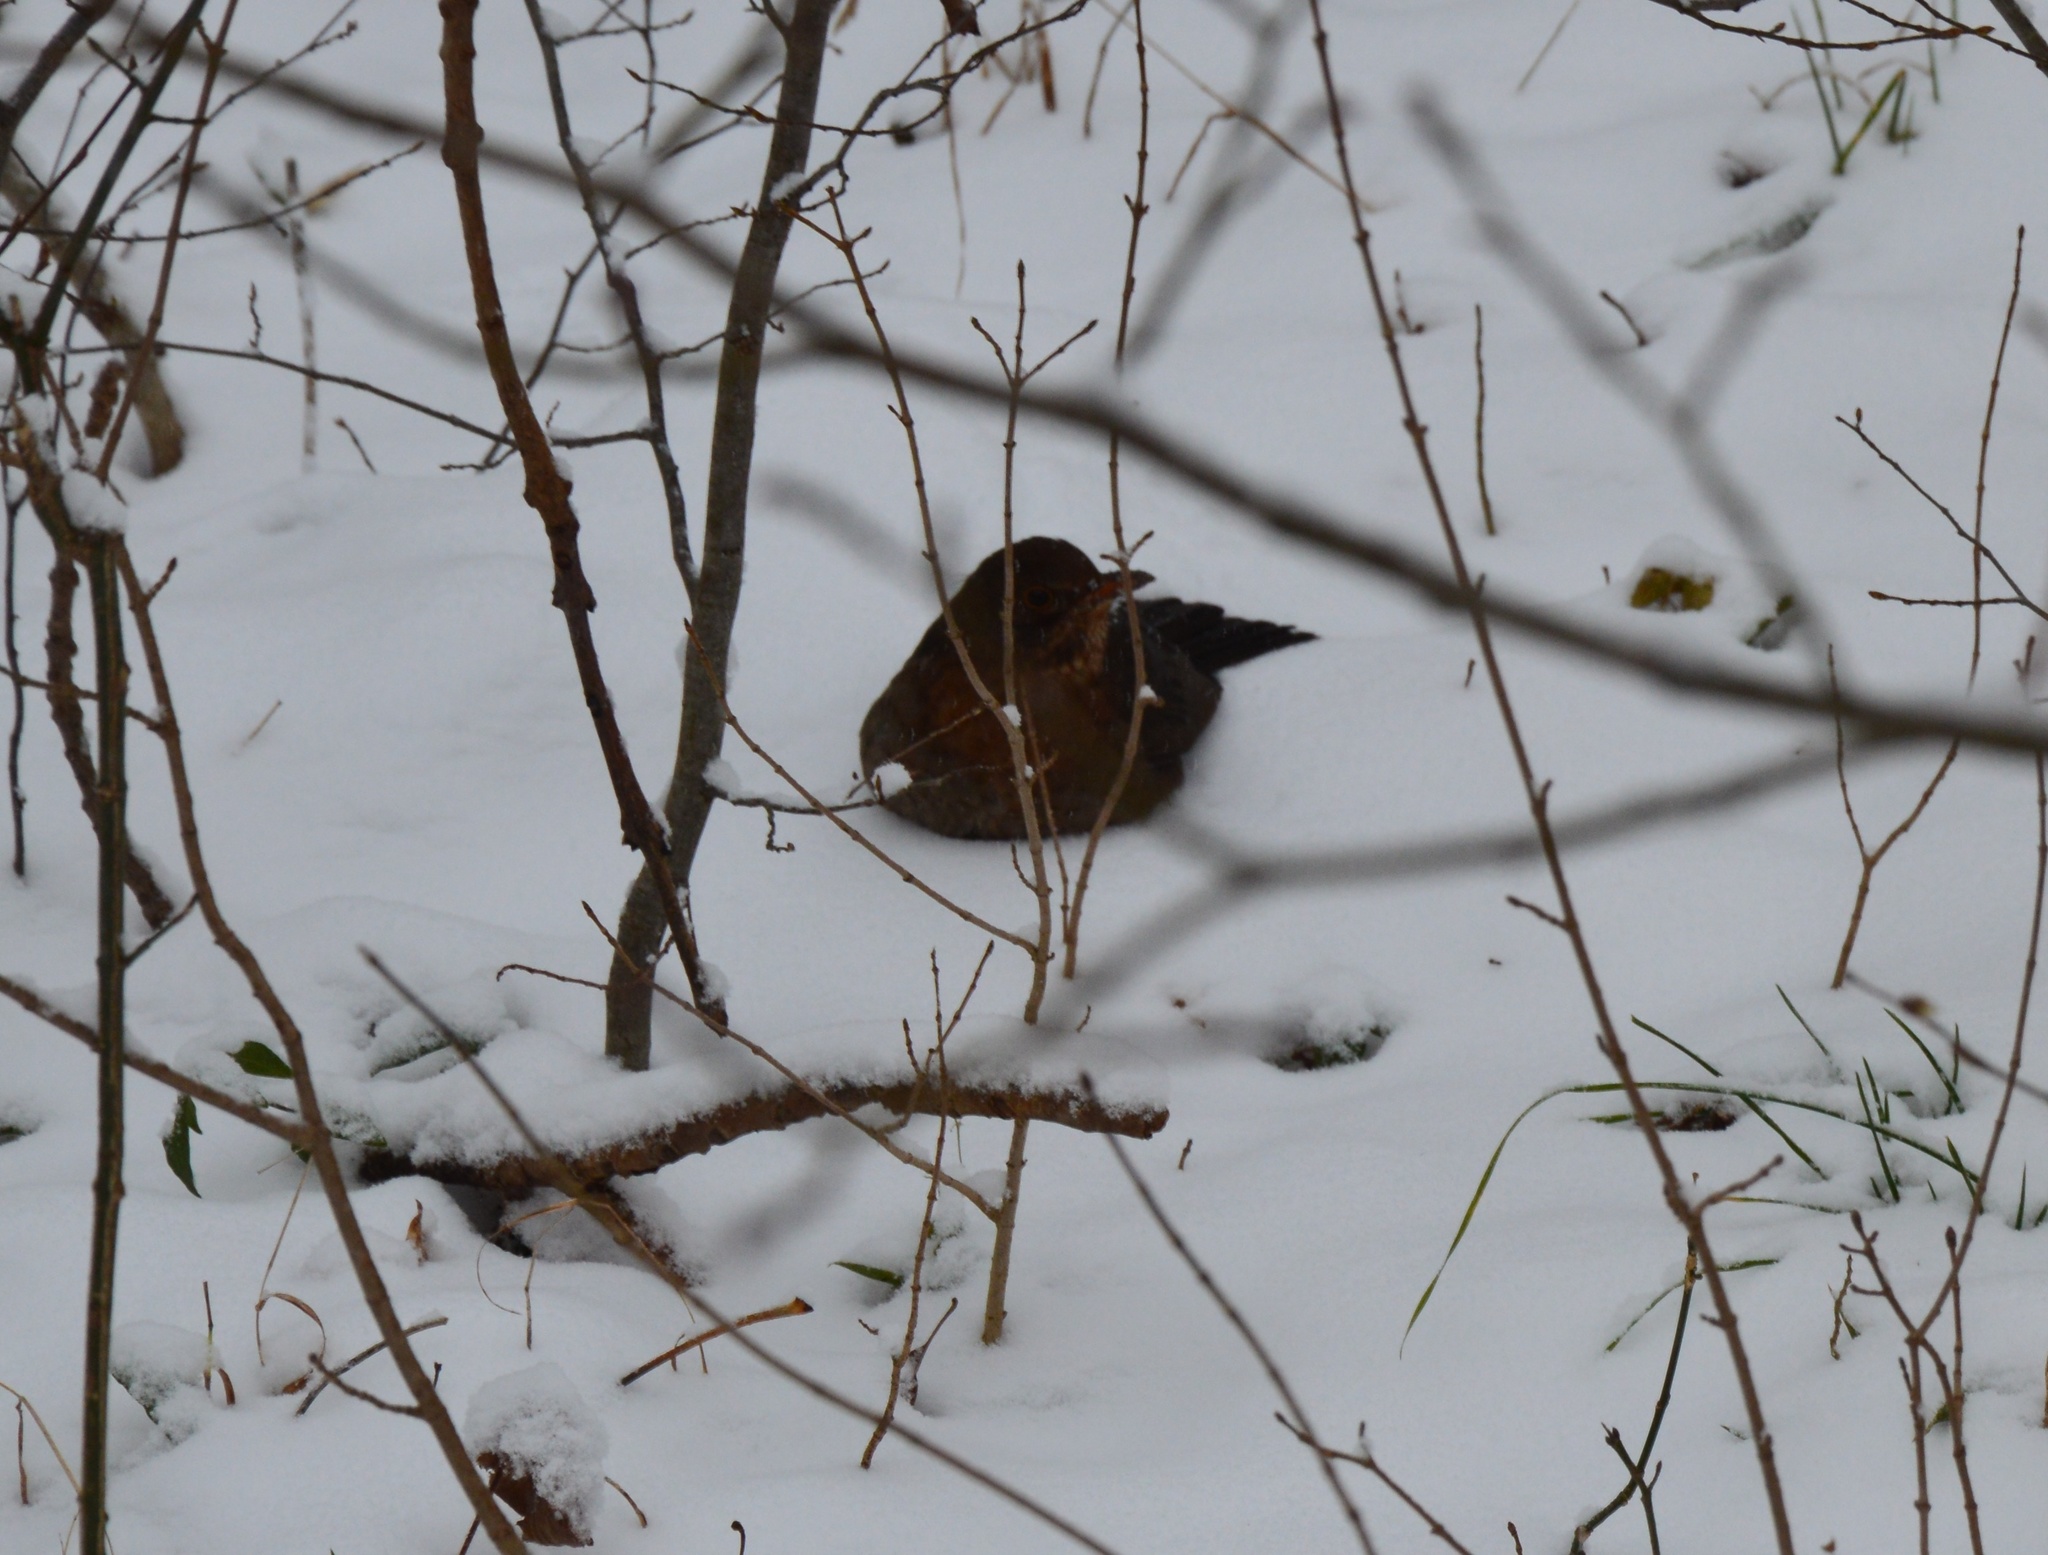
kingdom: Animalia
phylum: Chordata
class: Aves
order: Passeriformes
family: Turdidae
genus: Turdus
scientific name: Turdus merula
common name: Common blackbird
